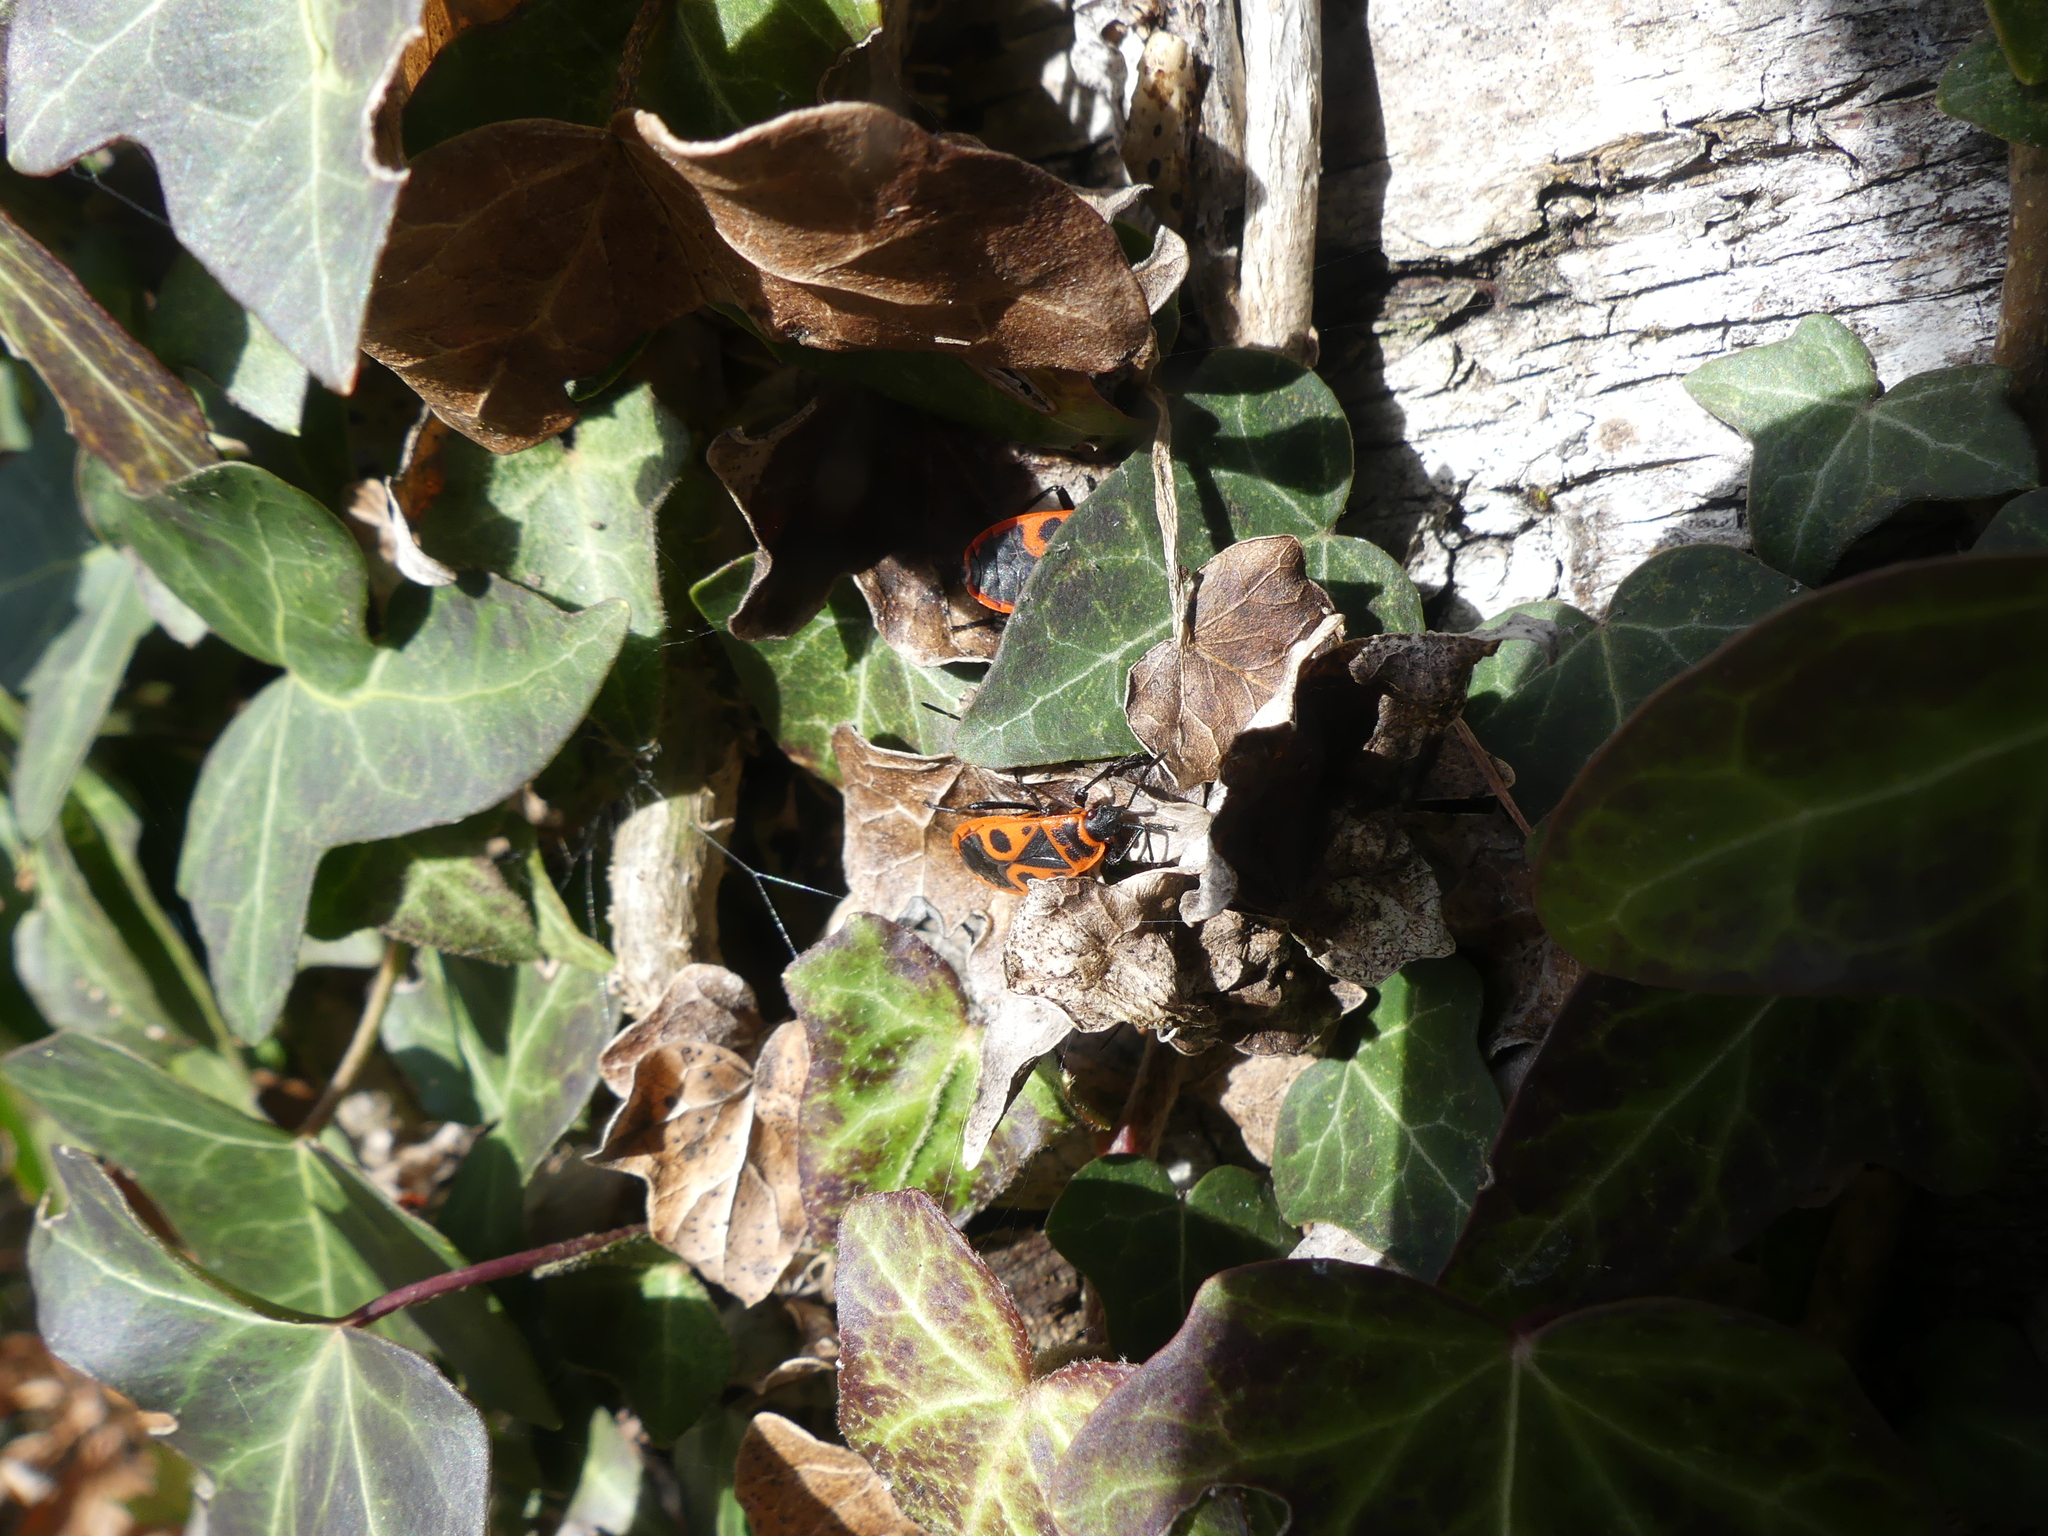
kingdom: Animalia
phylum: Arthropoda
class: Insecta
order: Hemiptera
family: Pyrrhocoridae
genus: Pyrrhocoris
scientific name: Pyrrhocoris apterus
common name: Firebug
